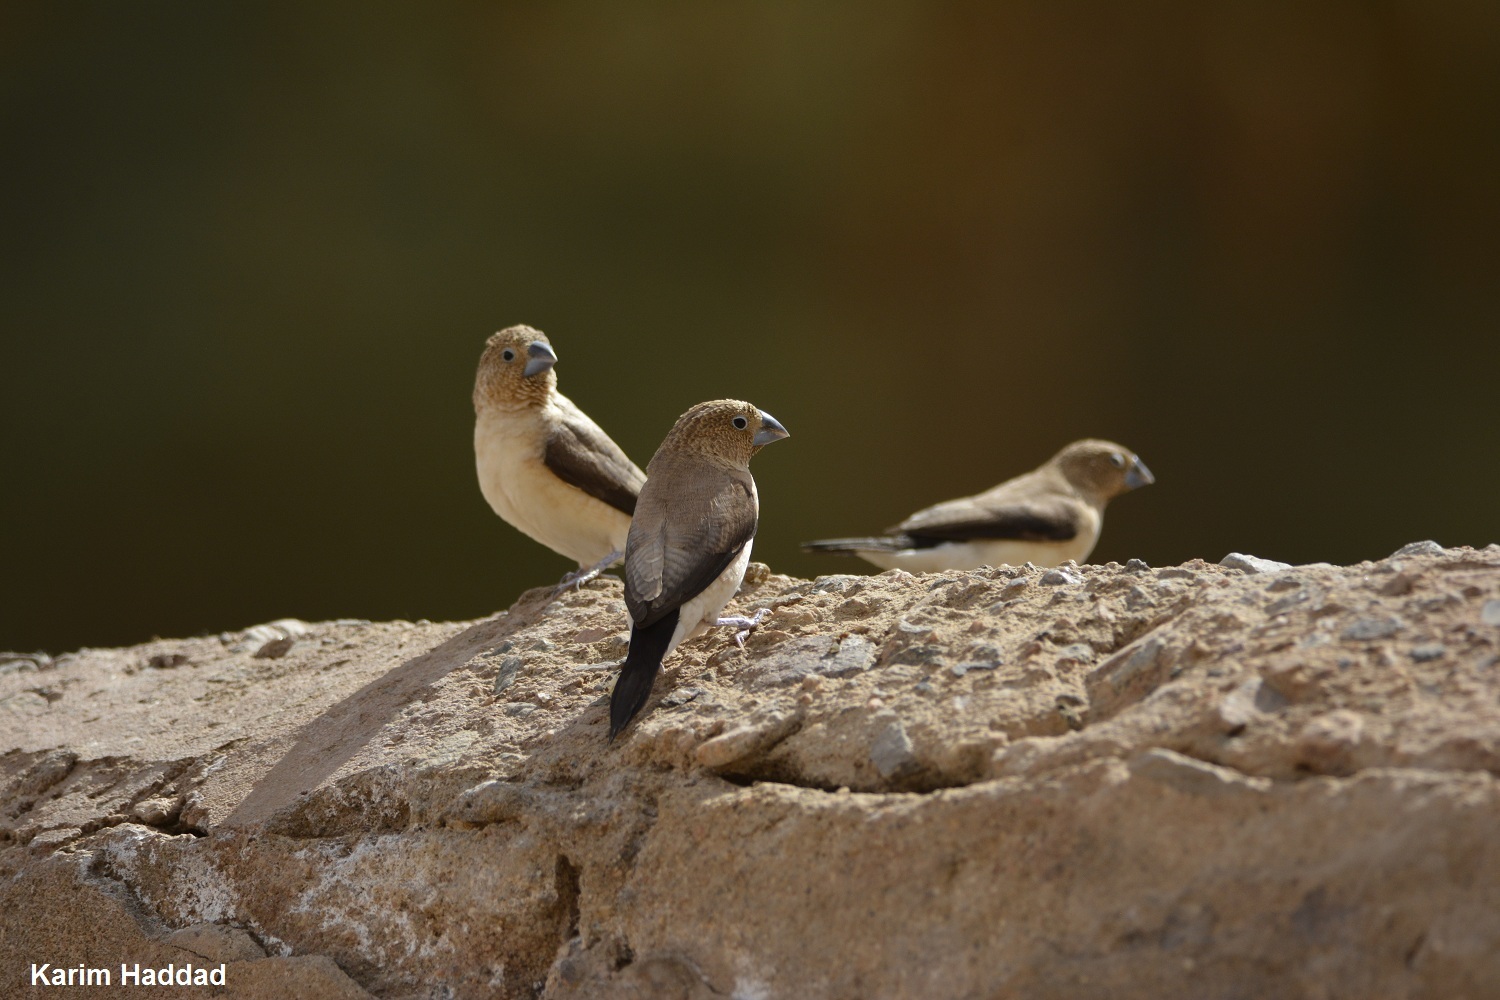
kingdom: Animalia
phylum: Chordata
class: Aves
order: Passeriformes
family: Estrildidae
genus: Euodice
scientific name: Euodice cantans
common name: African silverbill
